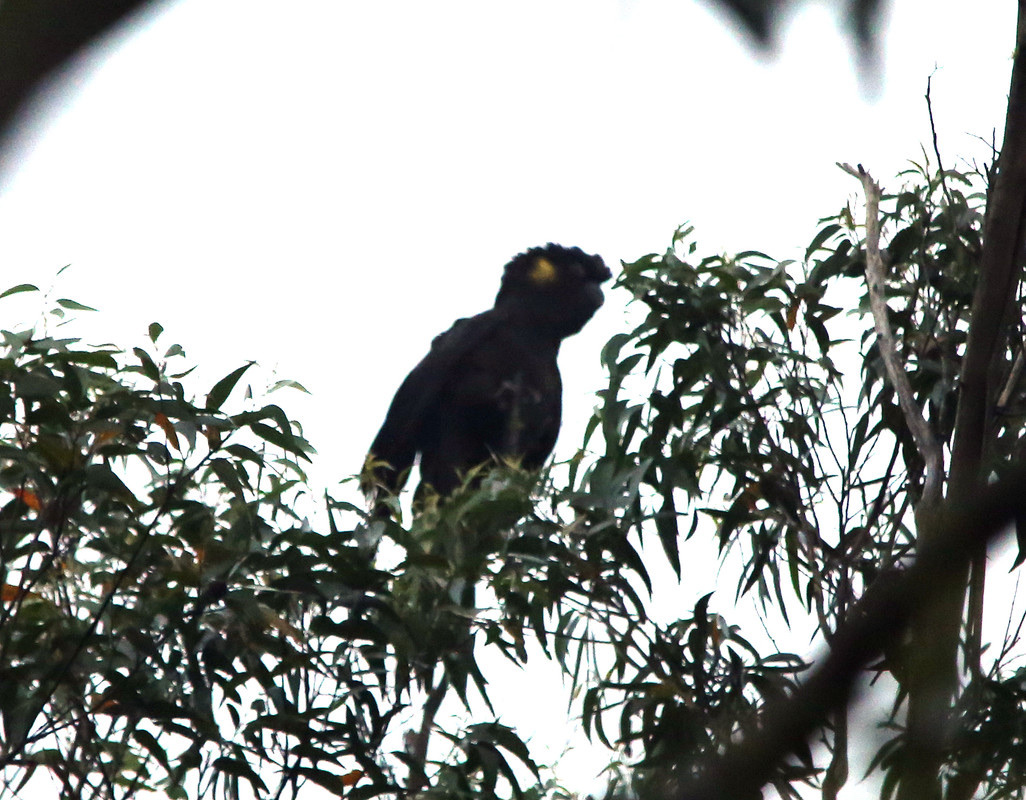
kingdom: Animalia
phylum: Chordata
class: Aves
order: Psittaciformes
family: Cacatuidae
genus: Zanda
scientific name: Zanda funerea
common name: Yellow-tailed black-cockatoo
